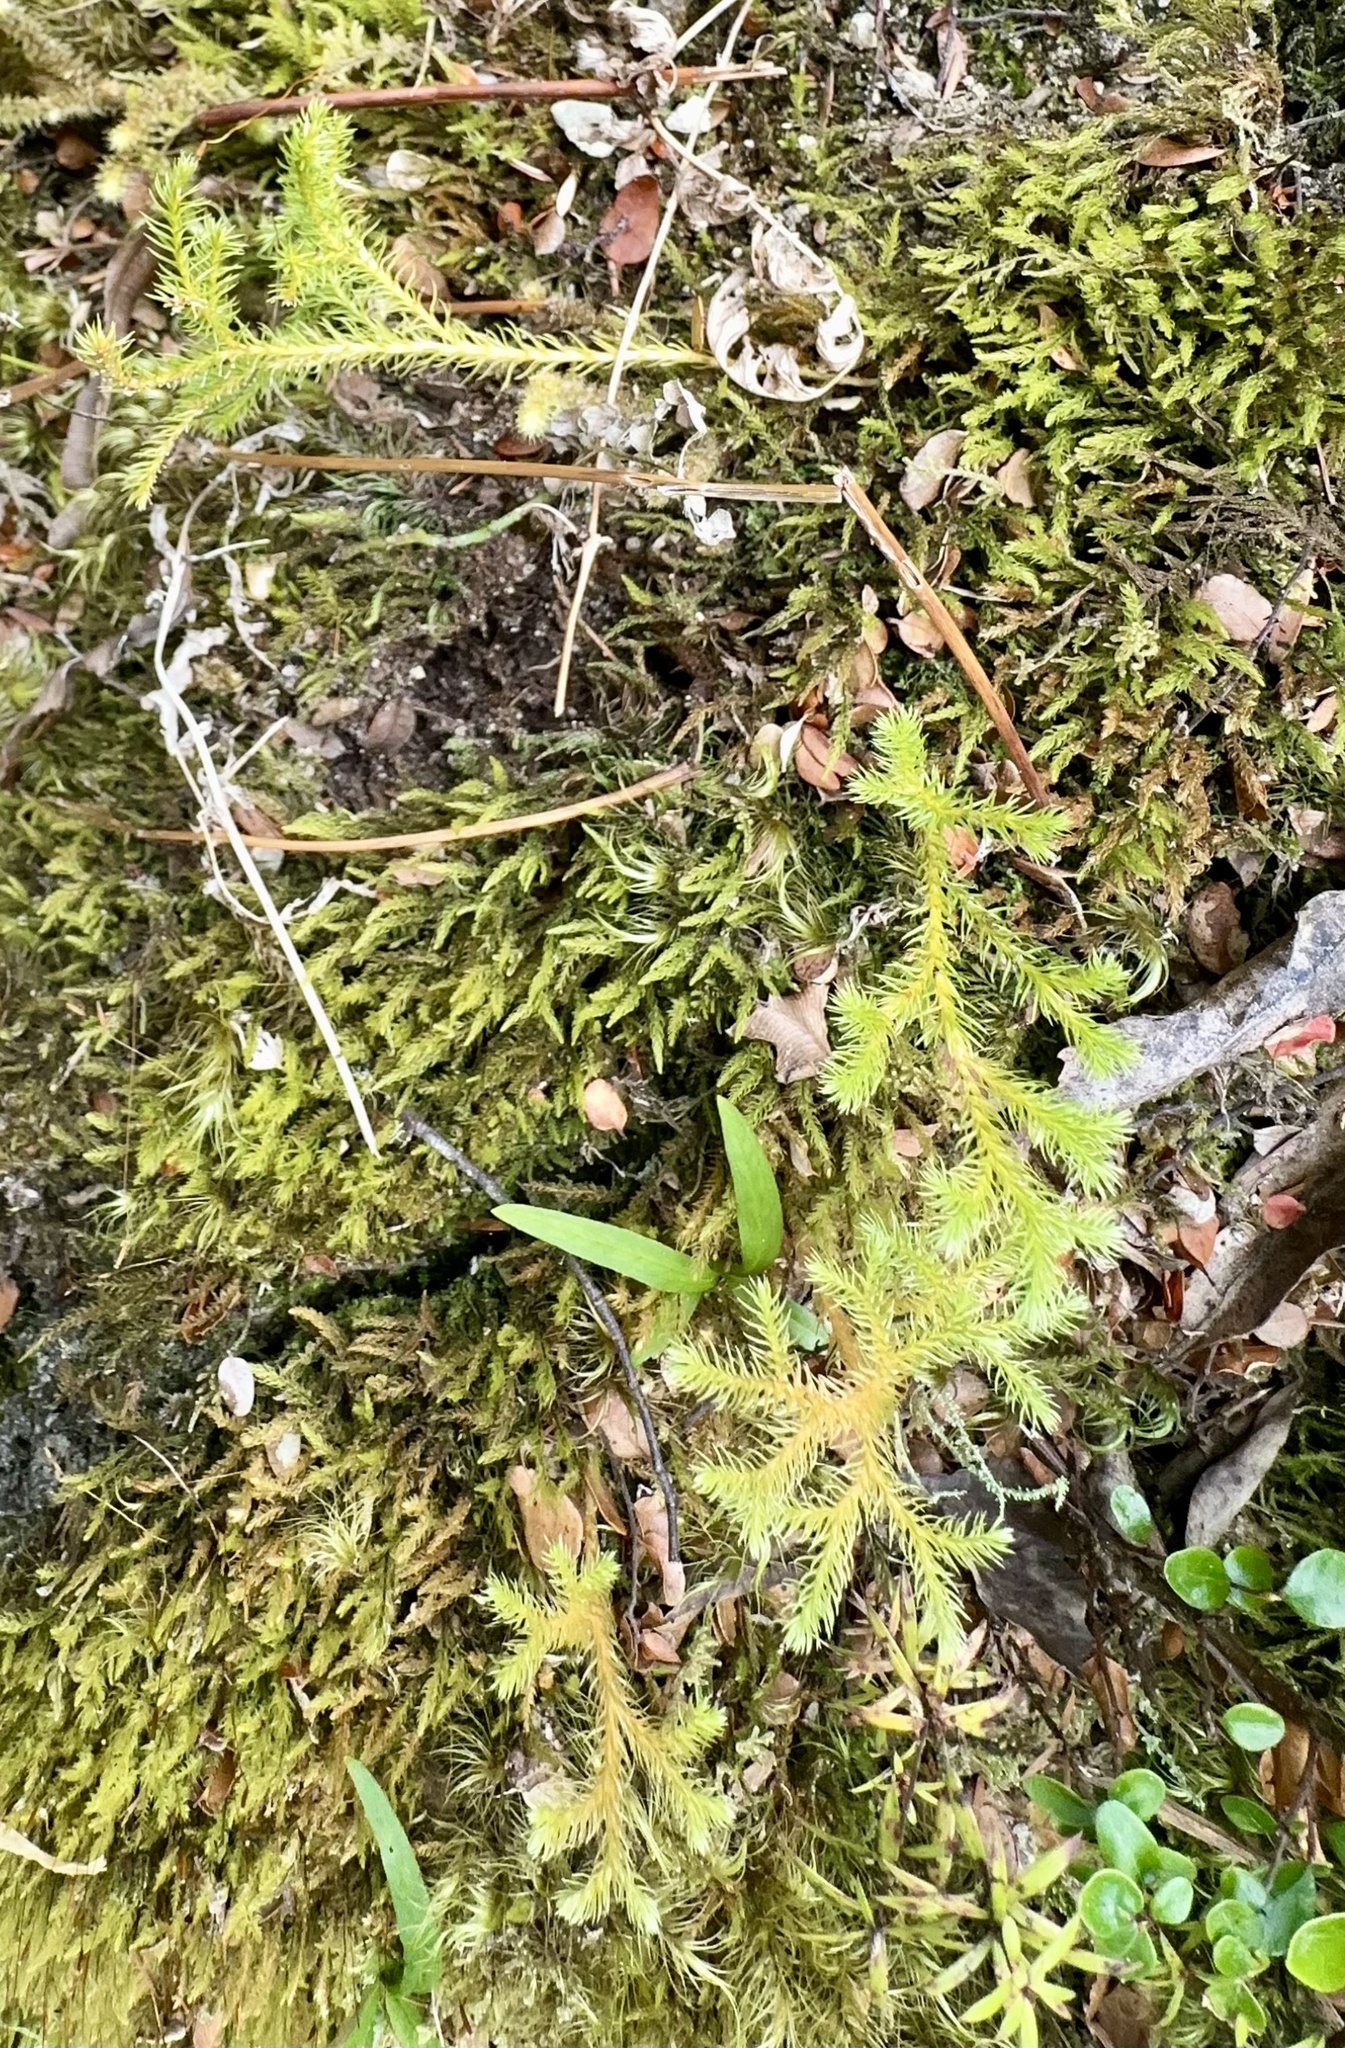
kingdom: Plantae
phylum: Tracheophyta
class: Lycopodiopsida
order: Lycopodiales
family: Lycopodiaceae
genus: Austrolycopodium
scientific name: Austrolycopodium fastigiatum
